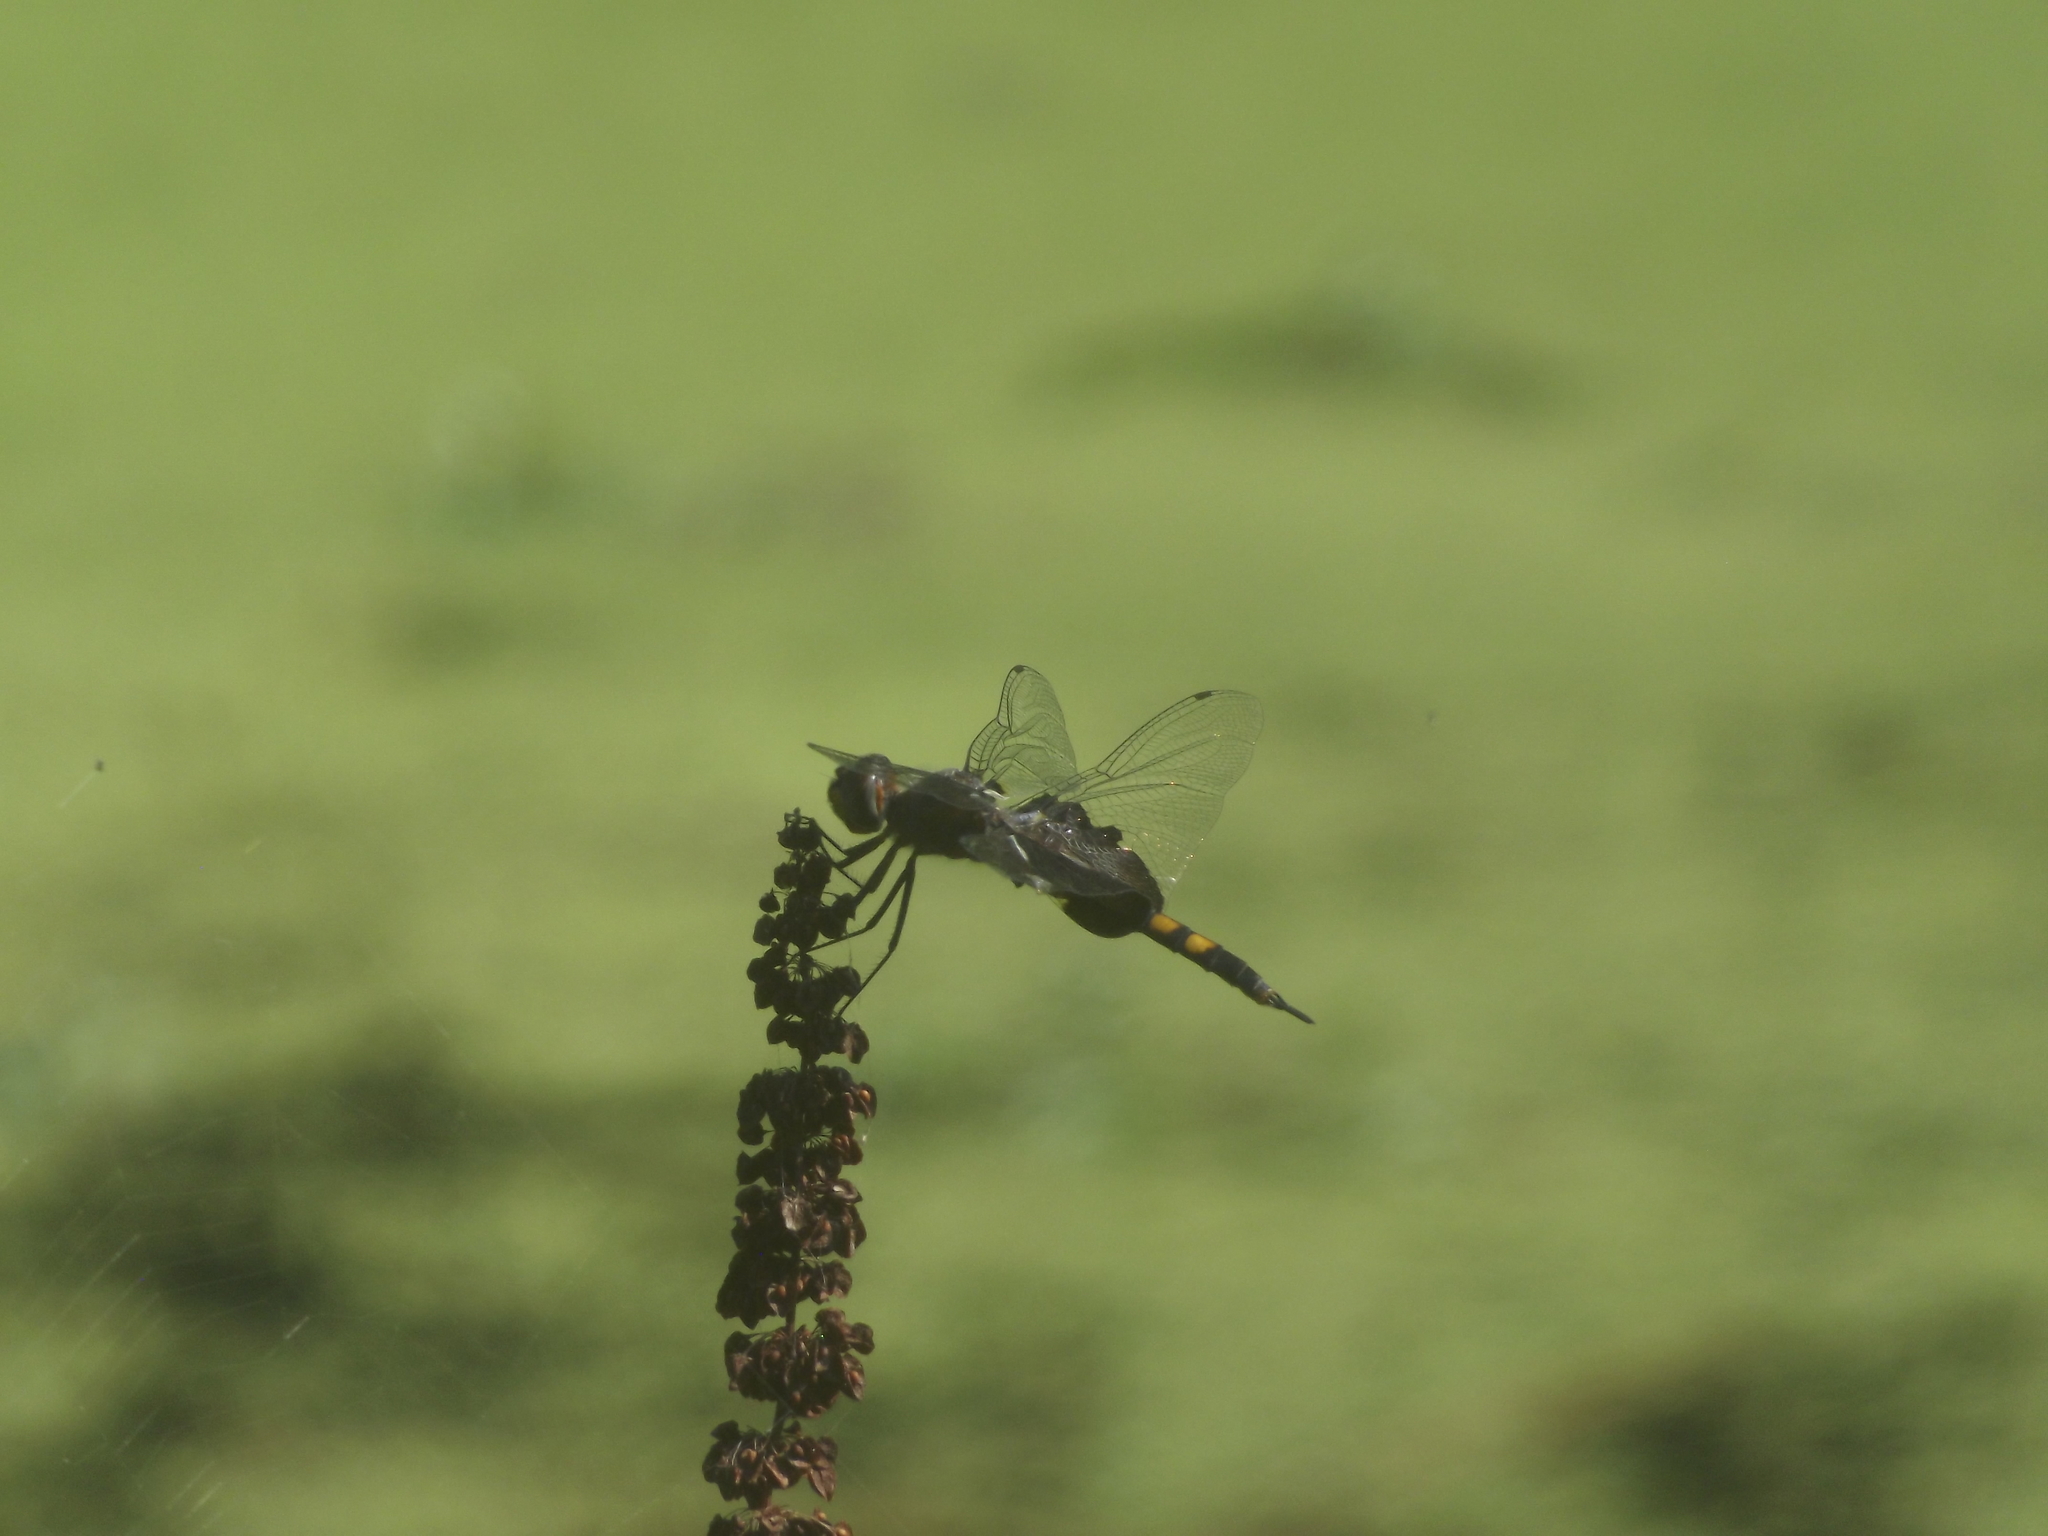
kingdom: Animalia
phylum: Arthropoda
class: Insecta
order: Odonata
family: Libellulidae
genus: Tramea
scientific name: Tramea lacerata
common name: Black saddlebags
